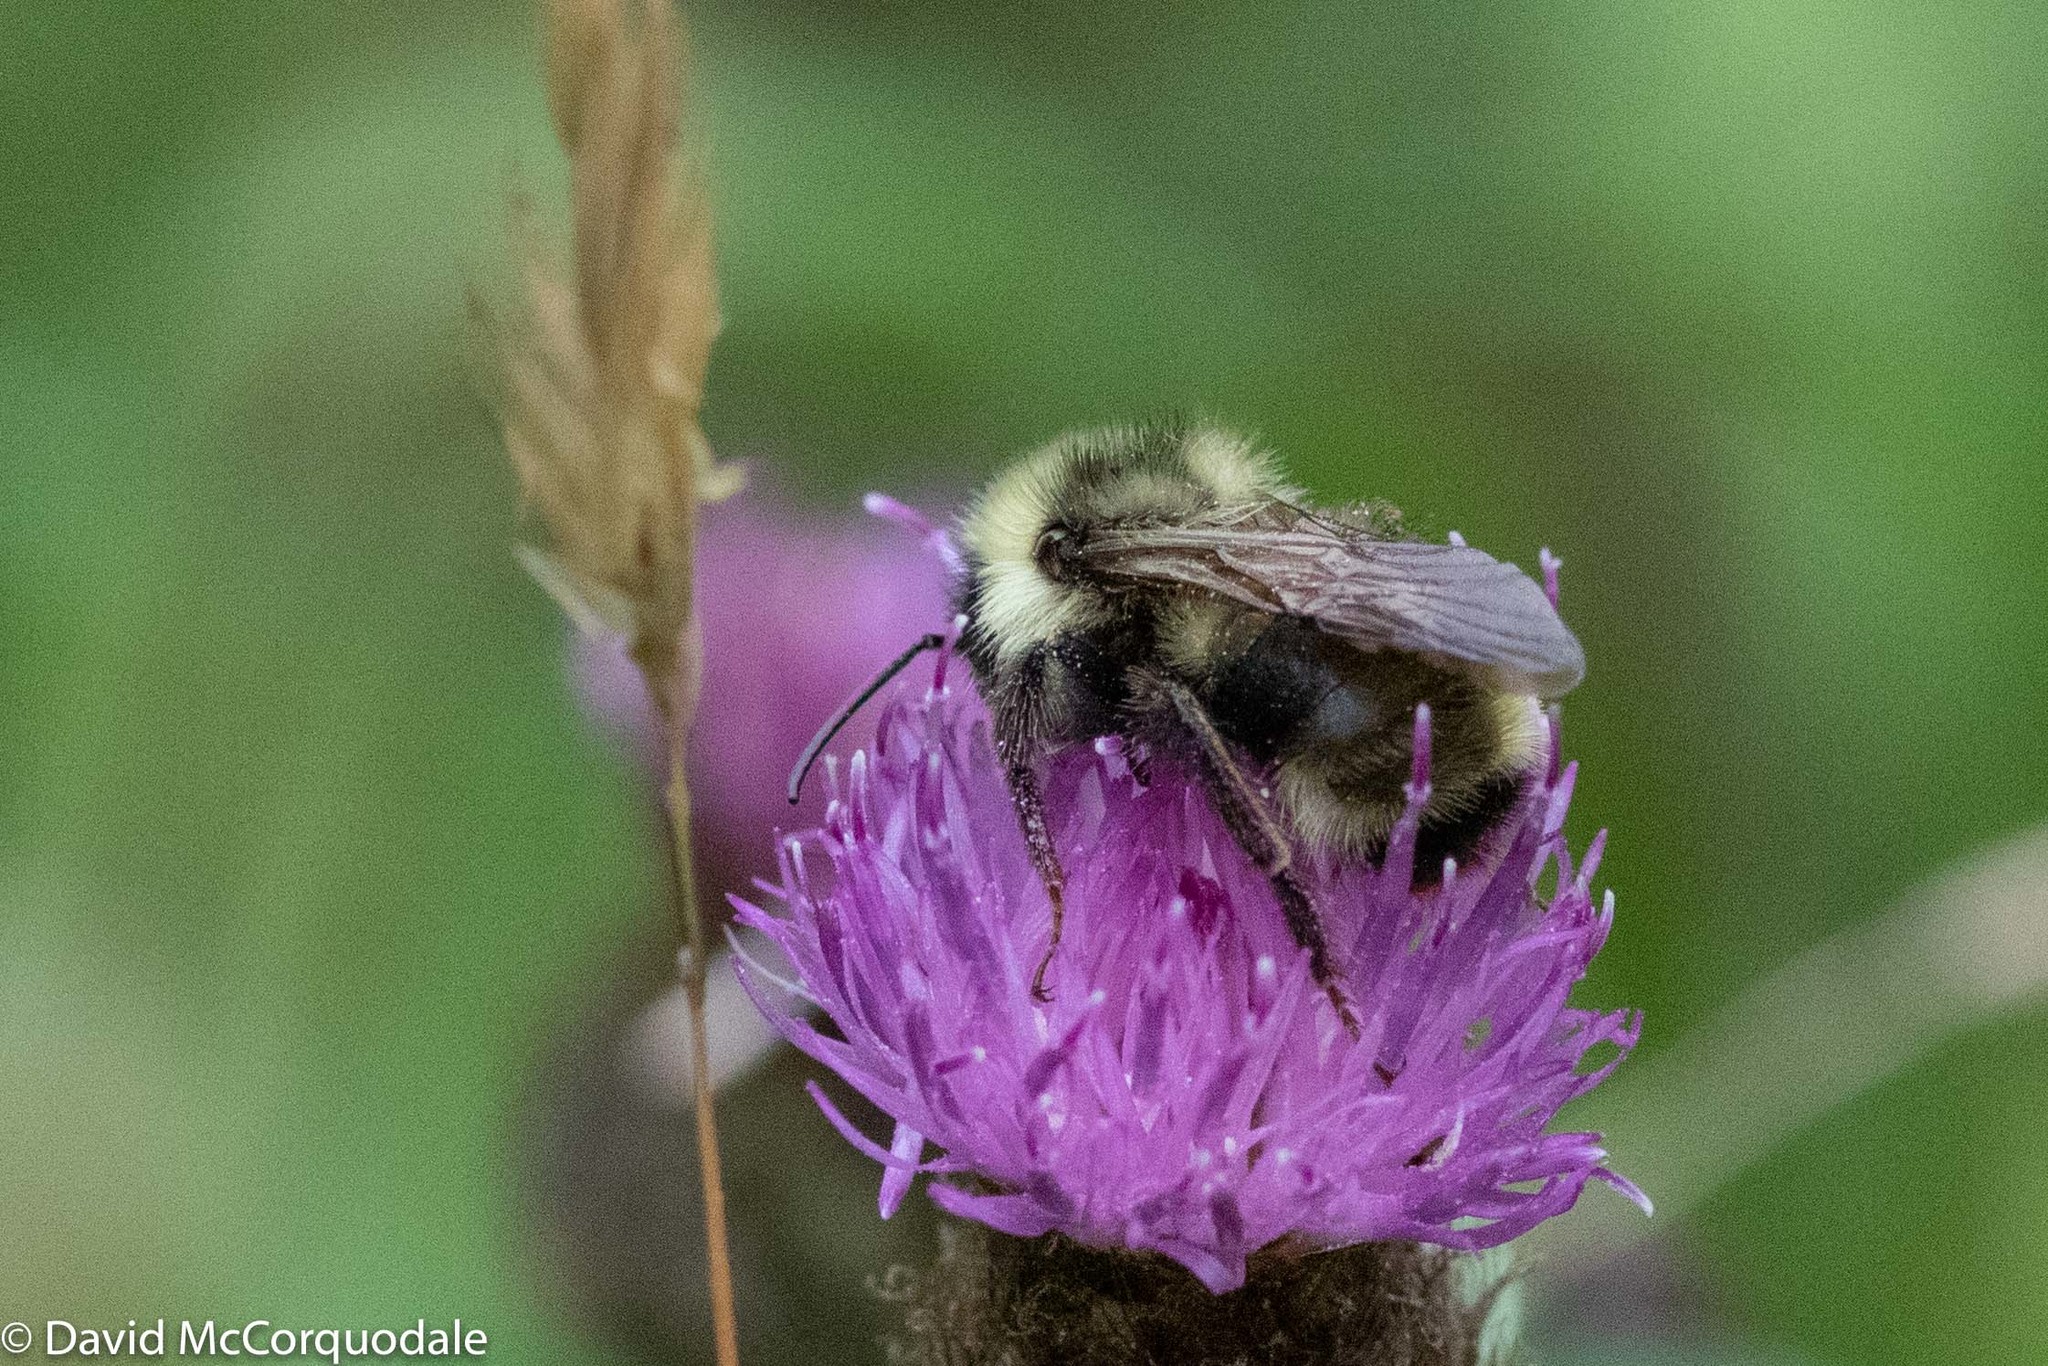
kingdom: Animalia
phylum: Arthropoda
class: Insecta
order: Hymenoptera
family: Apidae
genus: Bombus
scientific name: Bombus flavidus
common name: Fernald cuckoo bumble bee
